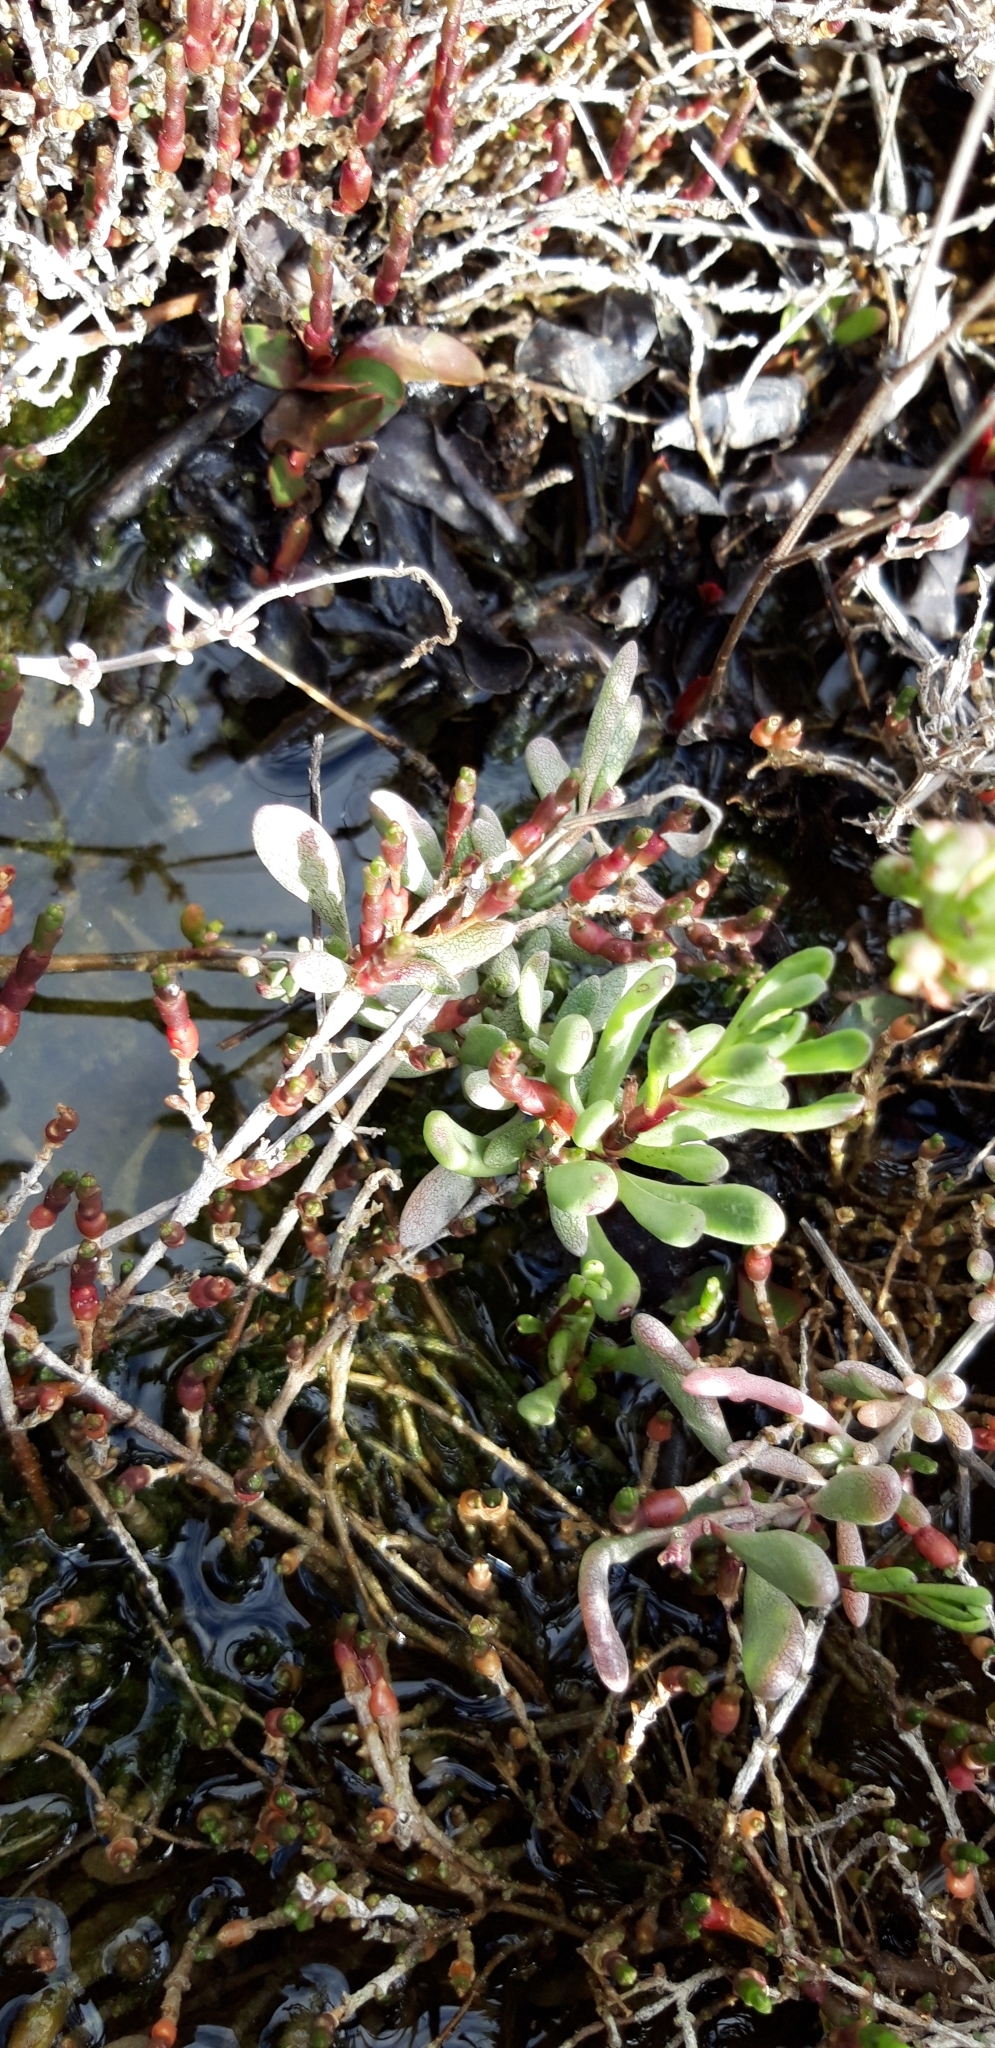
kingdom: Plantae
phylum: Tracheophyta
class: Magnoliopsida
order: Asterales
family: Asteraceae
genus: Limbarda
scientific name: Limbarda crithmoides
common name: Golden samphire
